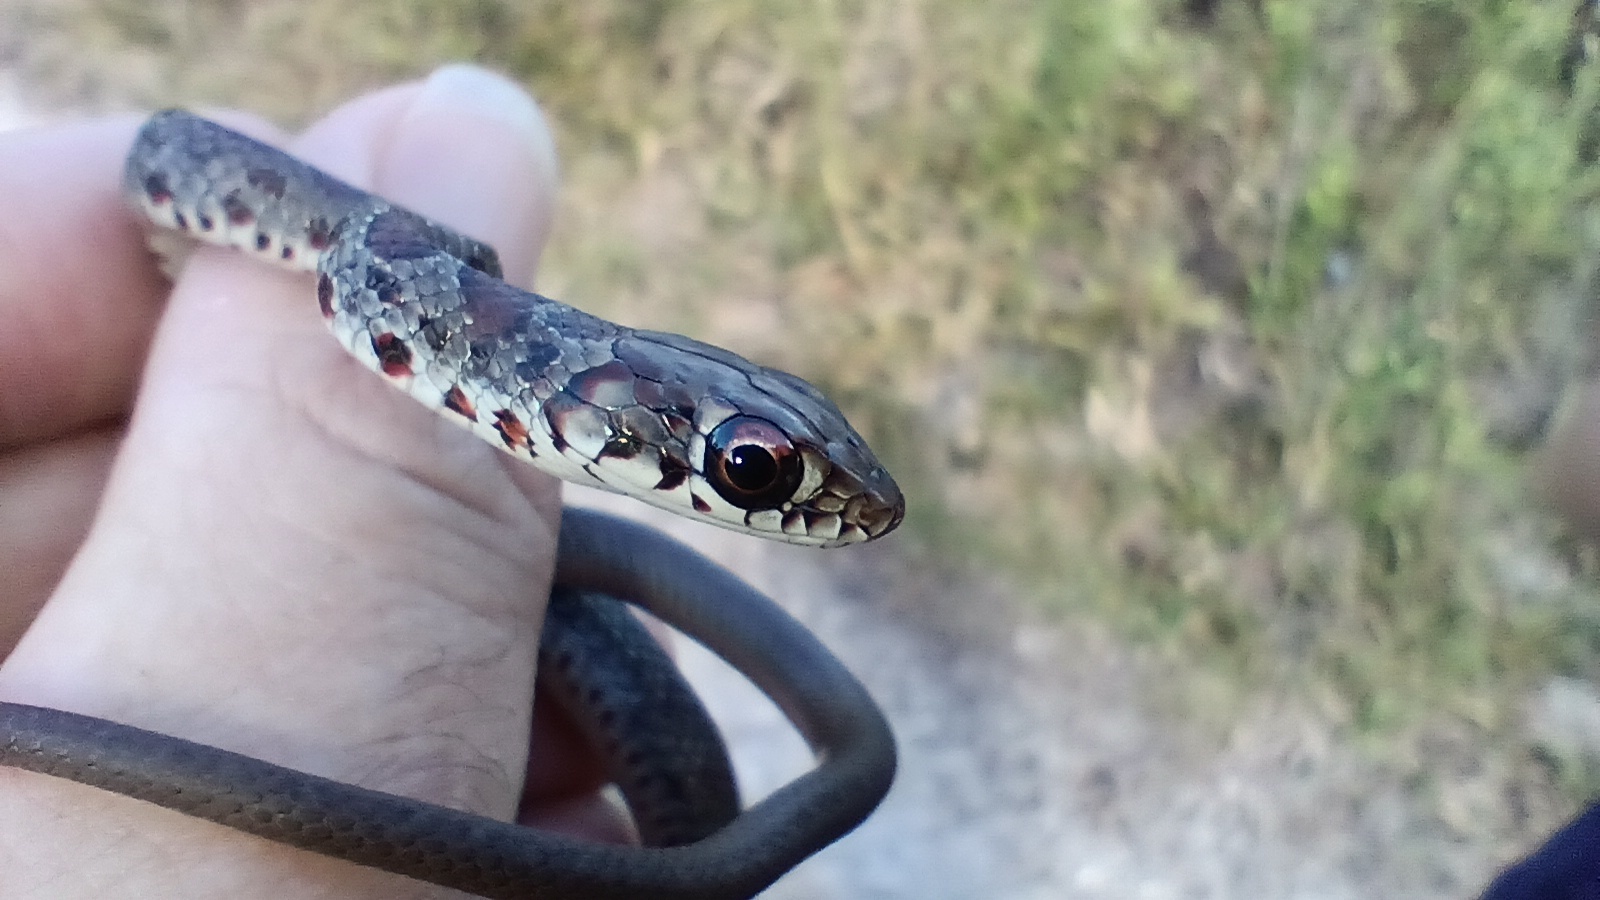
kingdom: Animalia
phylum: Chordata
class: Squamata
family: Colubridae
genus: Coluber
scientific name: Coluber constrictor
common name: Eastern racer
